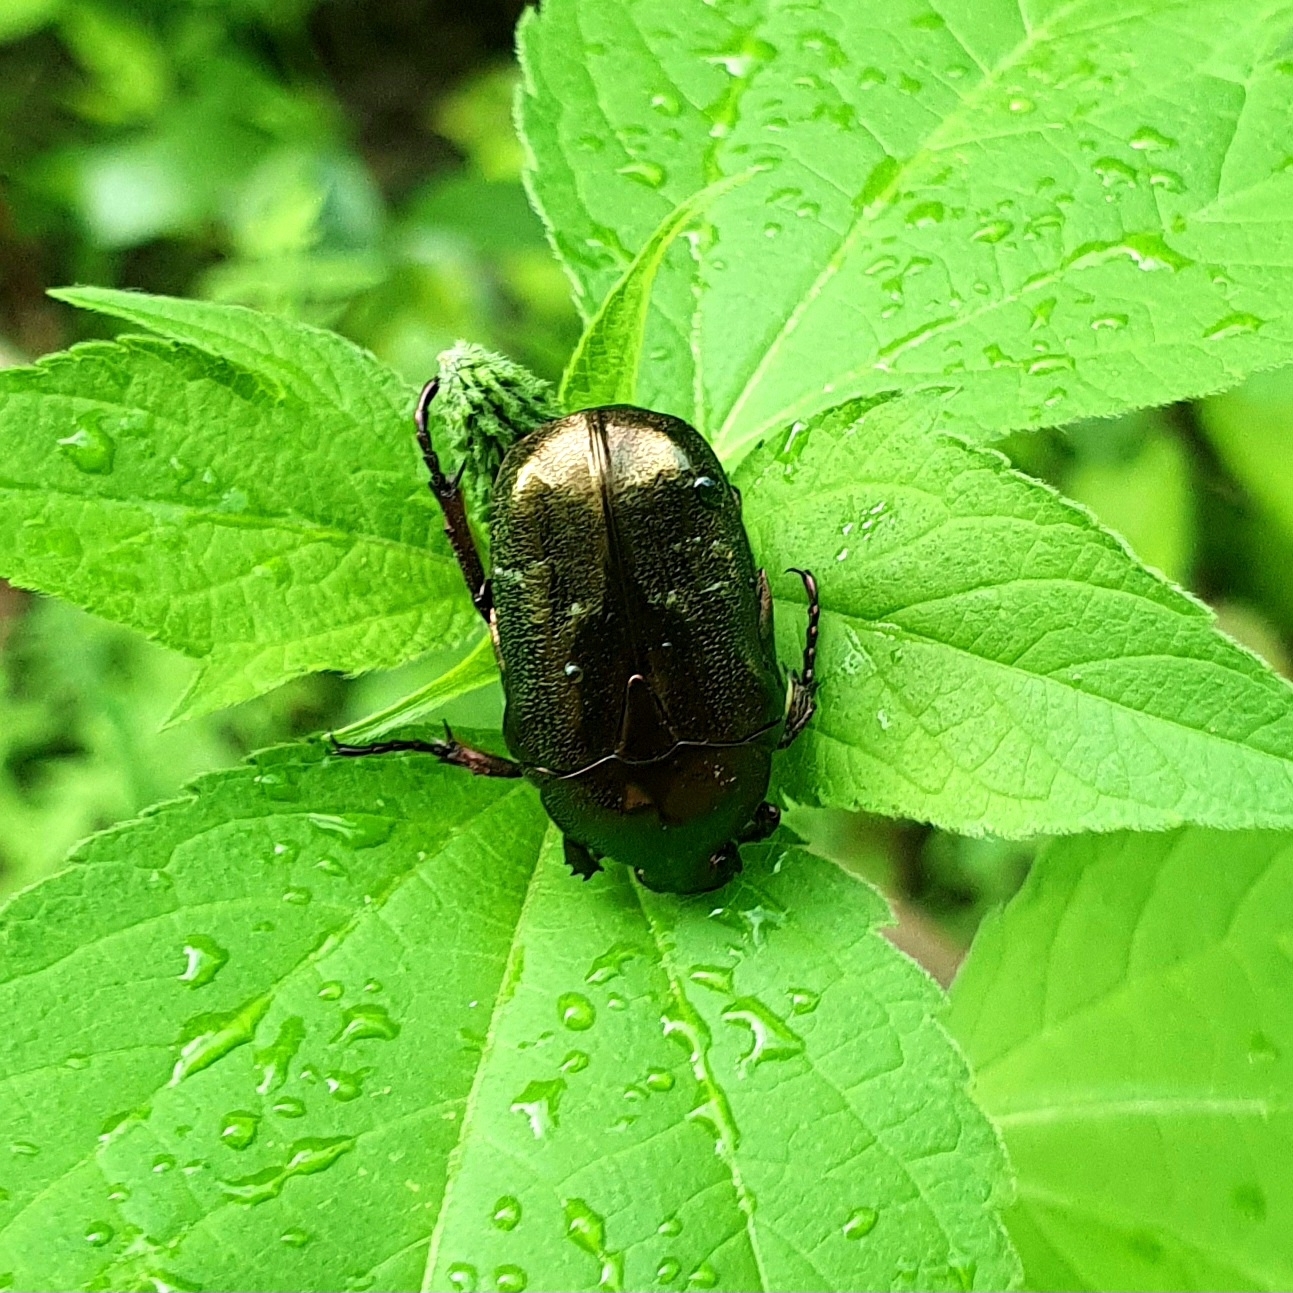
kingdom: Animalia
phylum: Arthropoda
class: Insecta
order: Coleoptera
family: Scarabaeidae
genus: Protaetia
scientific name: Protaetia cuprea
